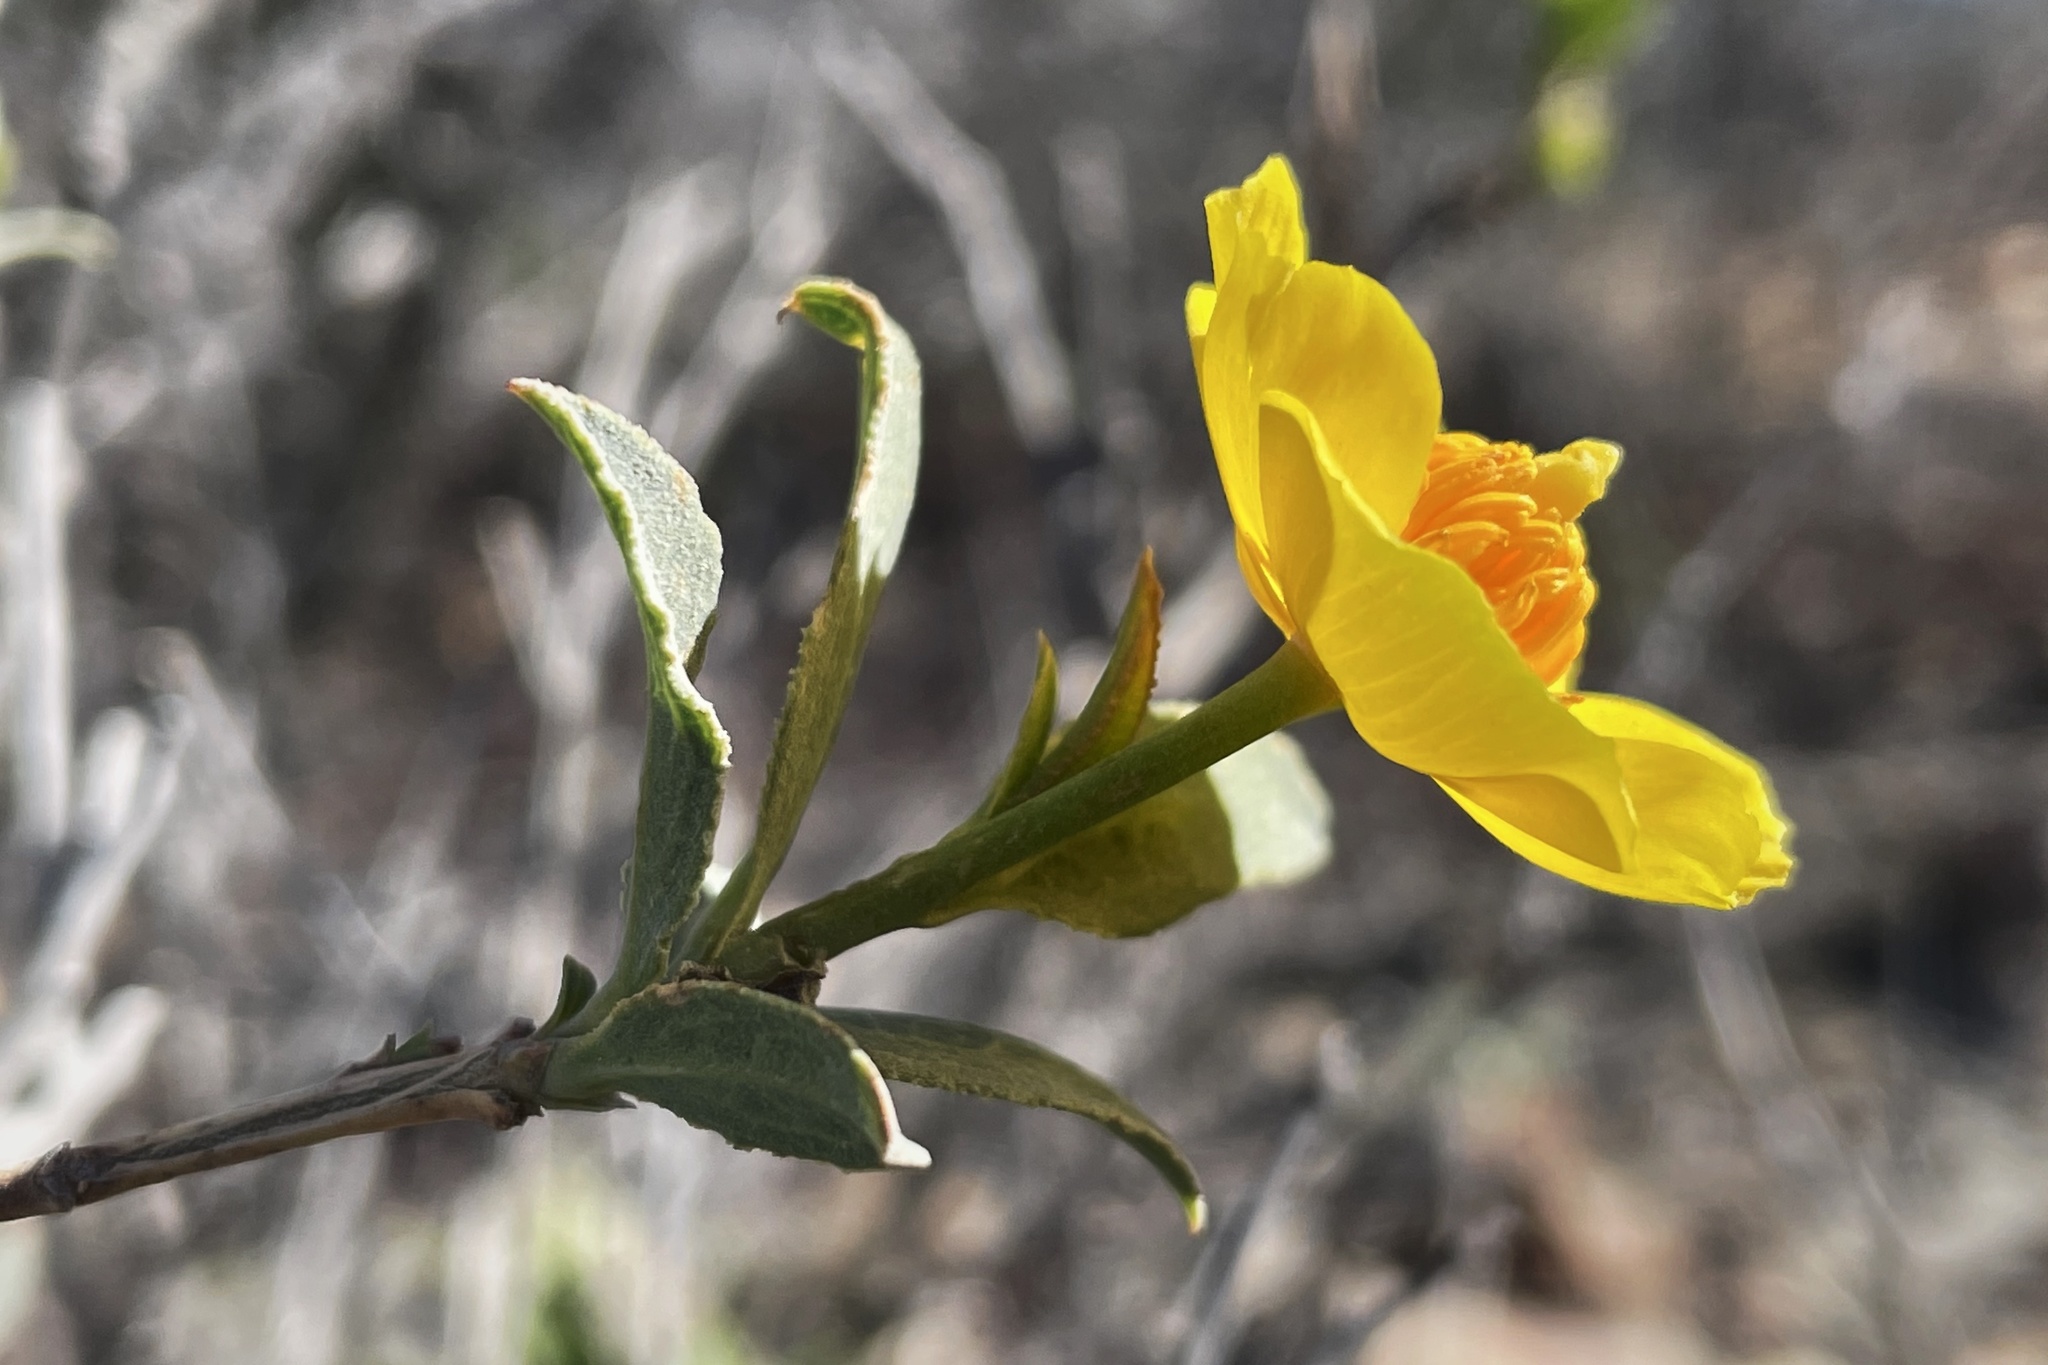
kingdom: Plantae
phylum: Tracheophyta
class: Magnoliopsida
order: Ranunculales
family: Papaveraceae
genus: Dendromecon
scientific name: Dendromecon rigida
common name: Tree poppy
